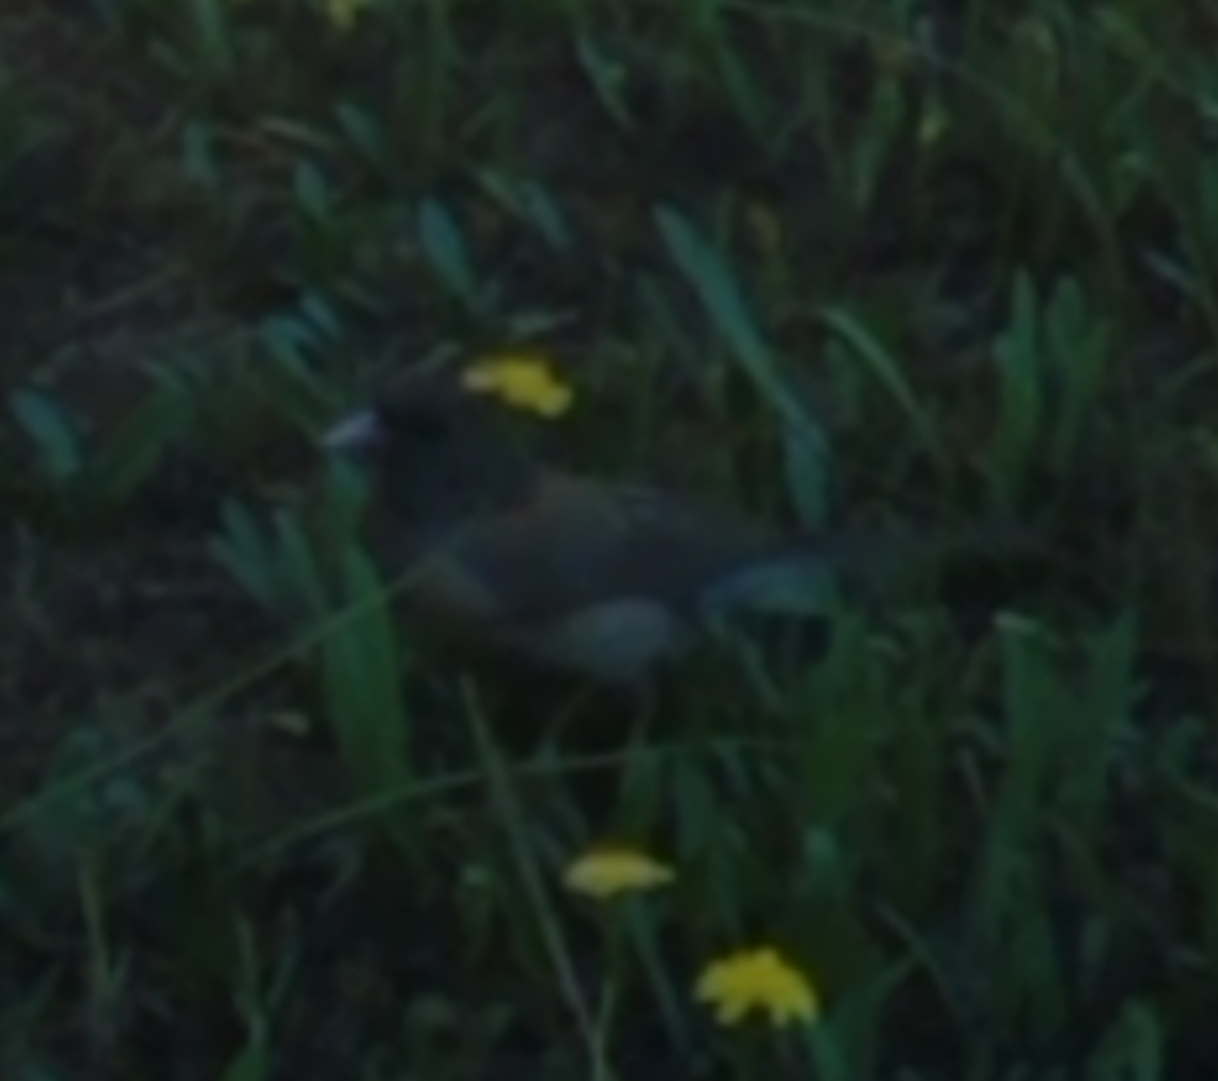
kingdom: Animalia
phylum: Chordata
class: Aves
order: Passeriformes
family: Passerellidae
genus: Junco
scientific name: Junco hyemalis
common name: Dark-eyed junco
